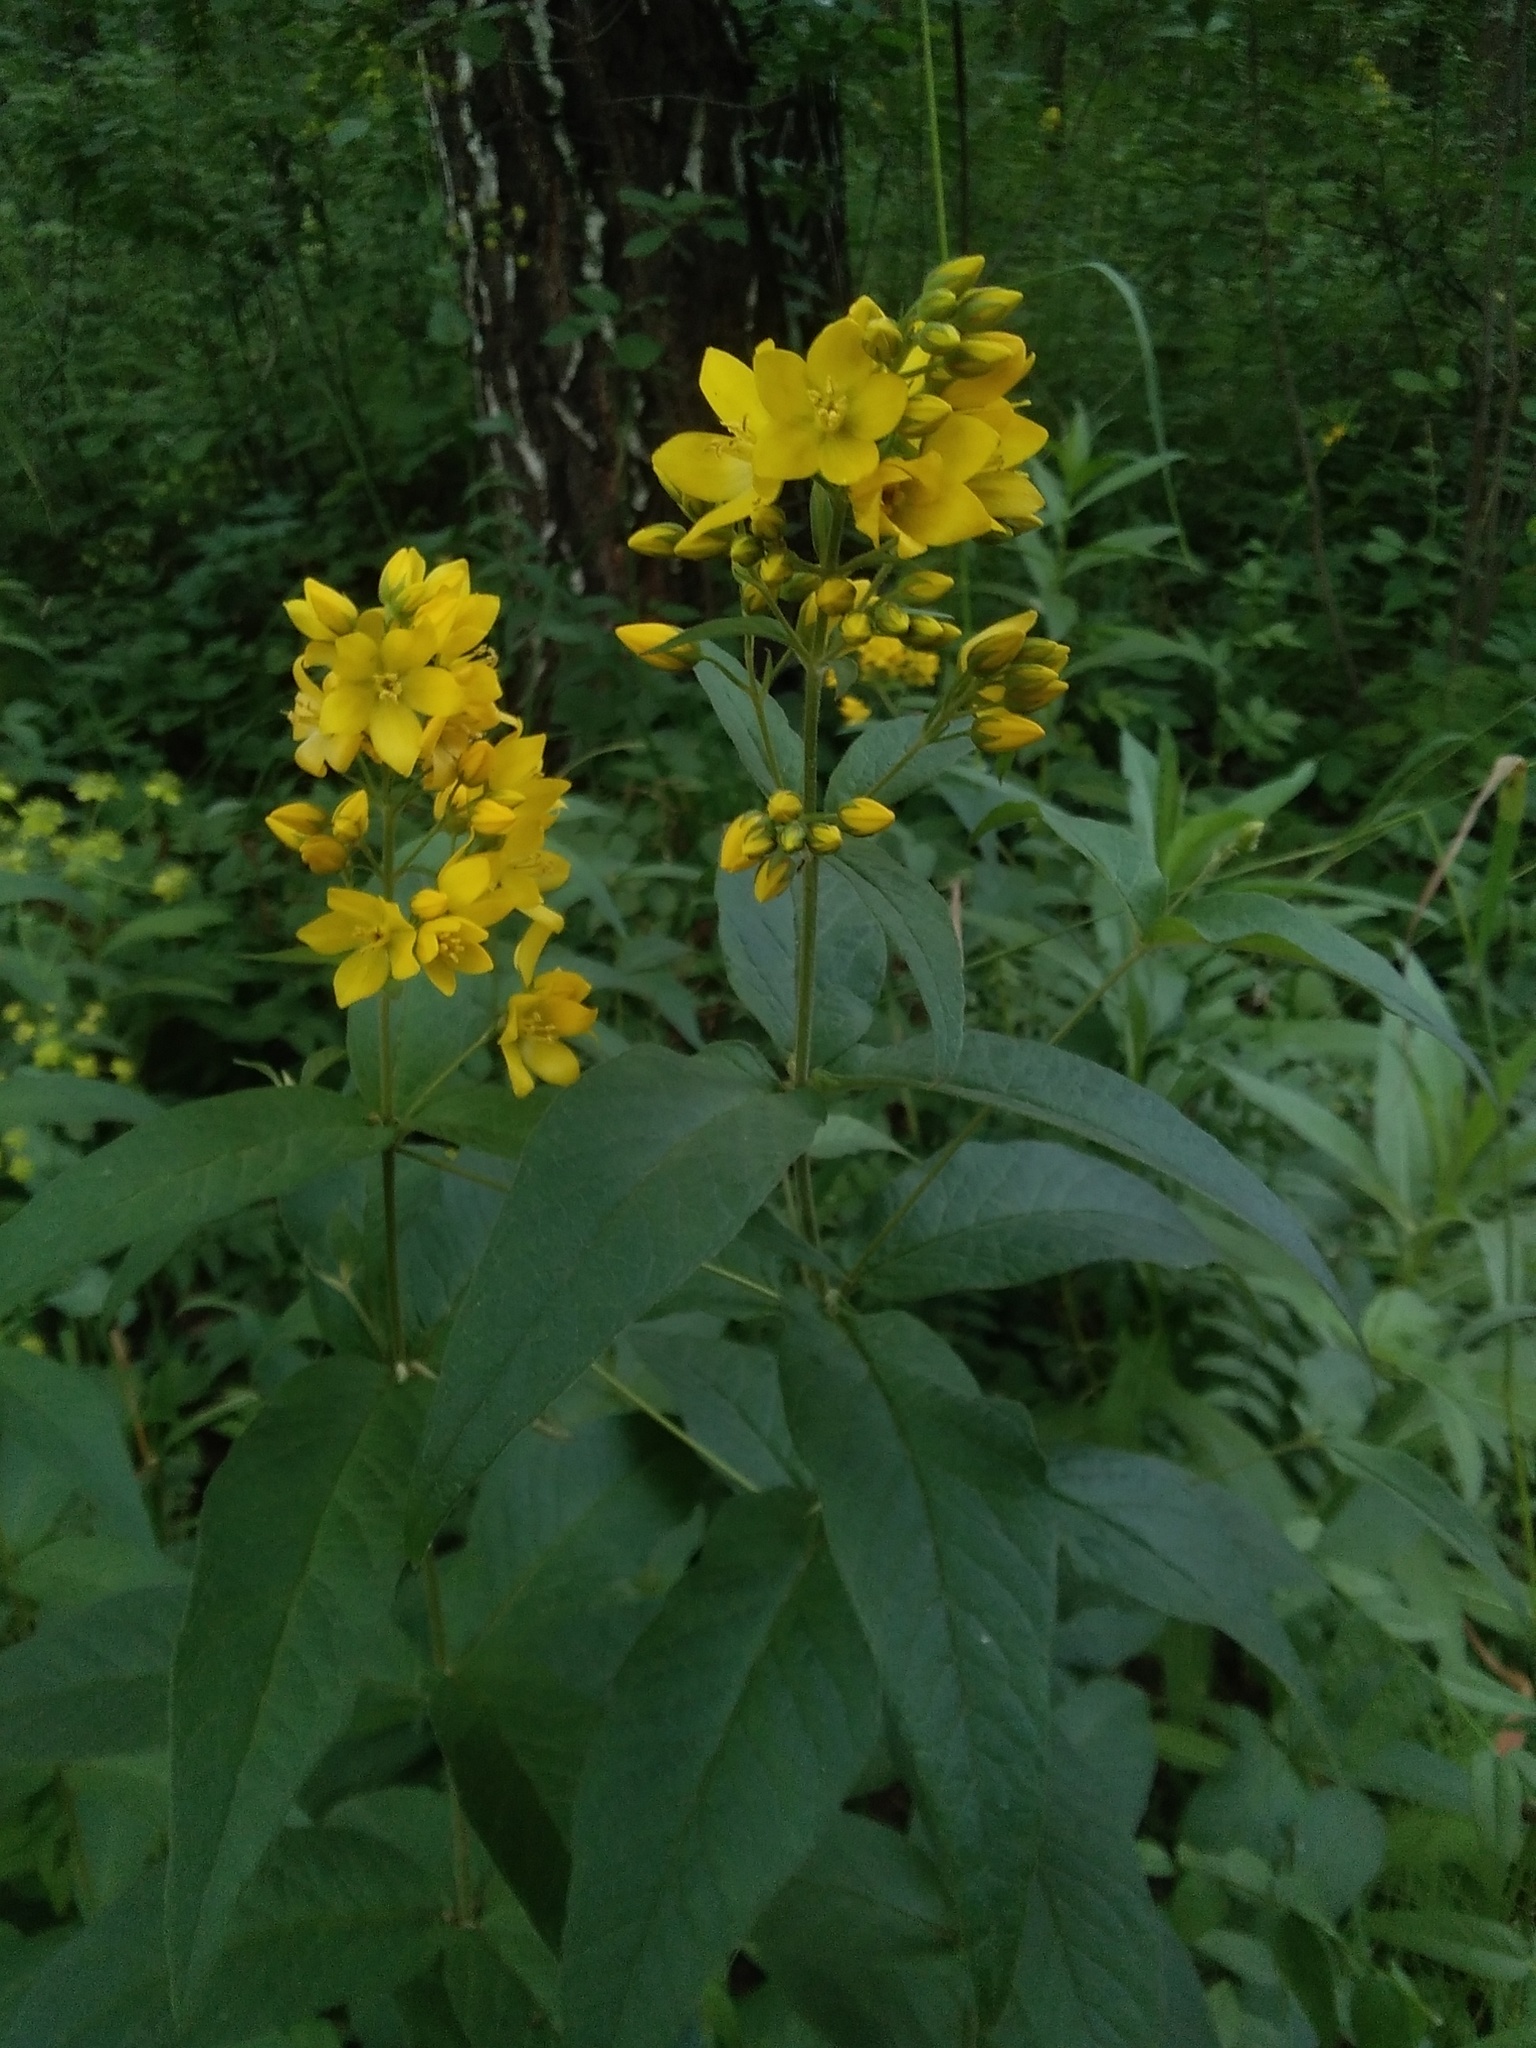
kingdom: Plantae
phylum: Tracheophyta
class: Magnoliopsida
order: Ericales
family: Primulaceae
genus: Lysimachia
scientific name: Lysimachia vulgaris
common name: Yellow loosestrife
